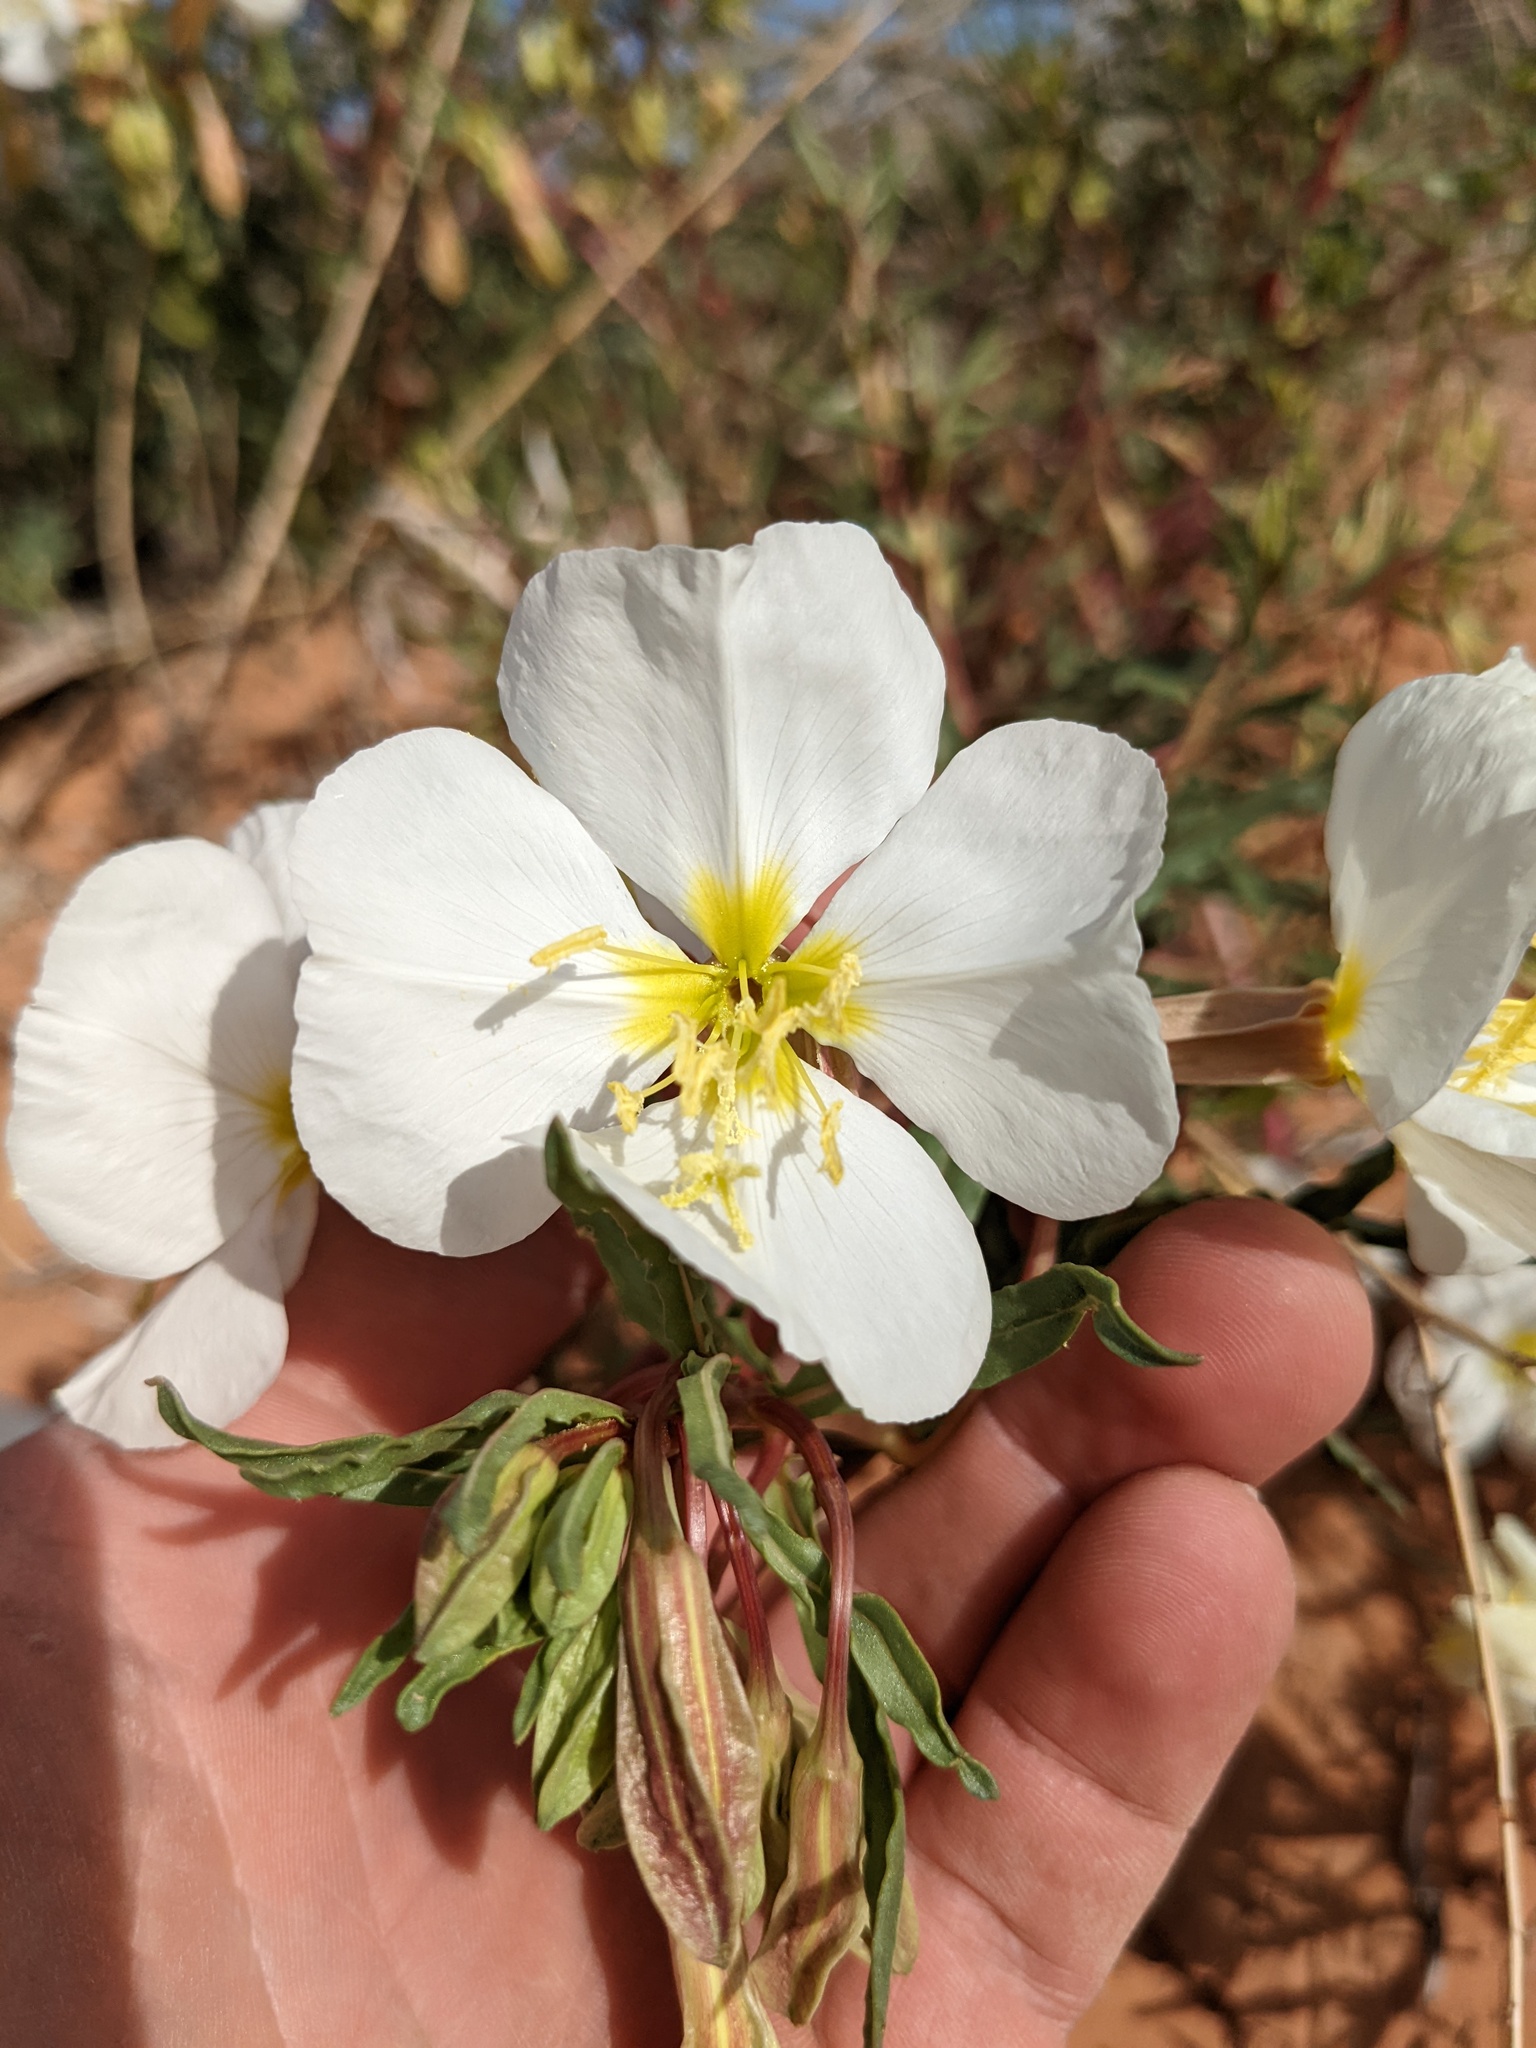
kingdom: Plantae
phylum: Tracheophyta
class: Magnoliopsida
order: Myrtales
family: Onagraceae
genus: Oenothera
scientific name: Oenothera pallida
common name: Pale evening-primrose
